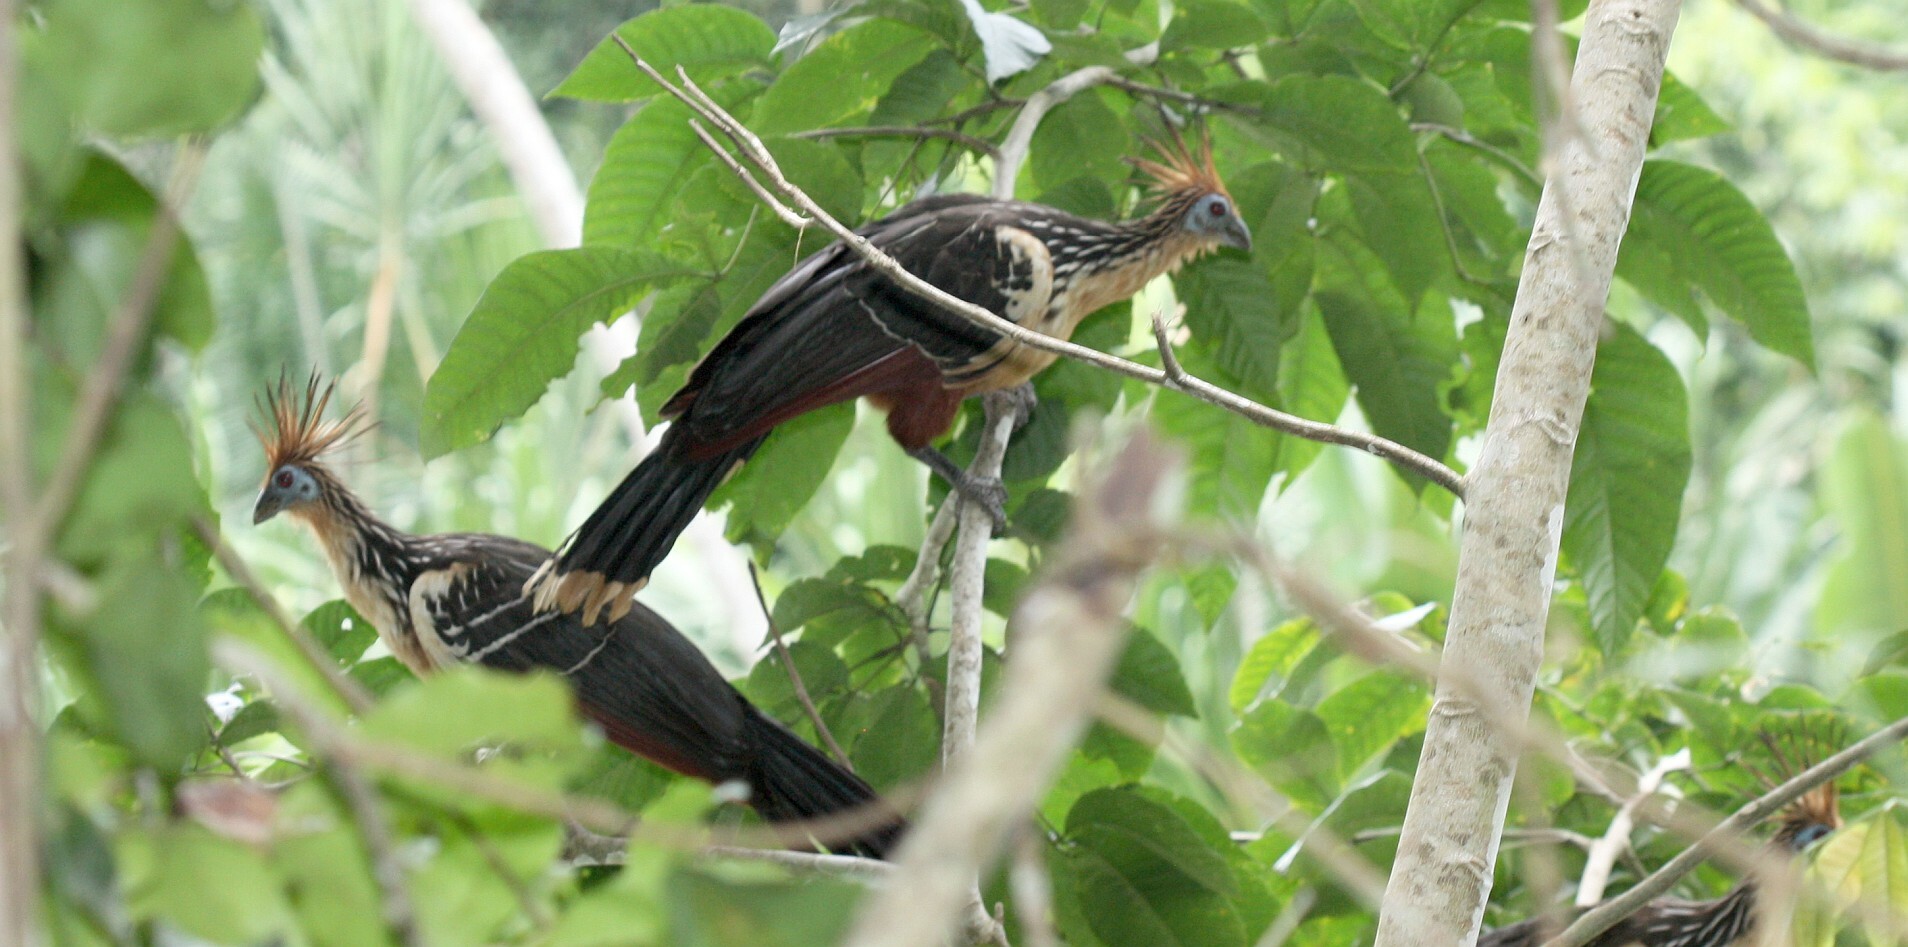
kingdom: Animalia
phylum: Chordata
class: Aves
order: Opisthocomiformes
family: Opisthocomidae
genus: Opisthocomus
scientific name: Opisthocomus hoazin
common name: Hoatzin
